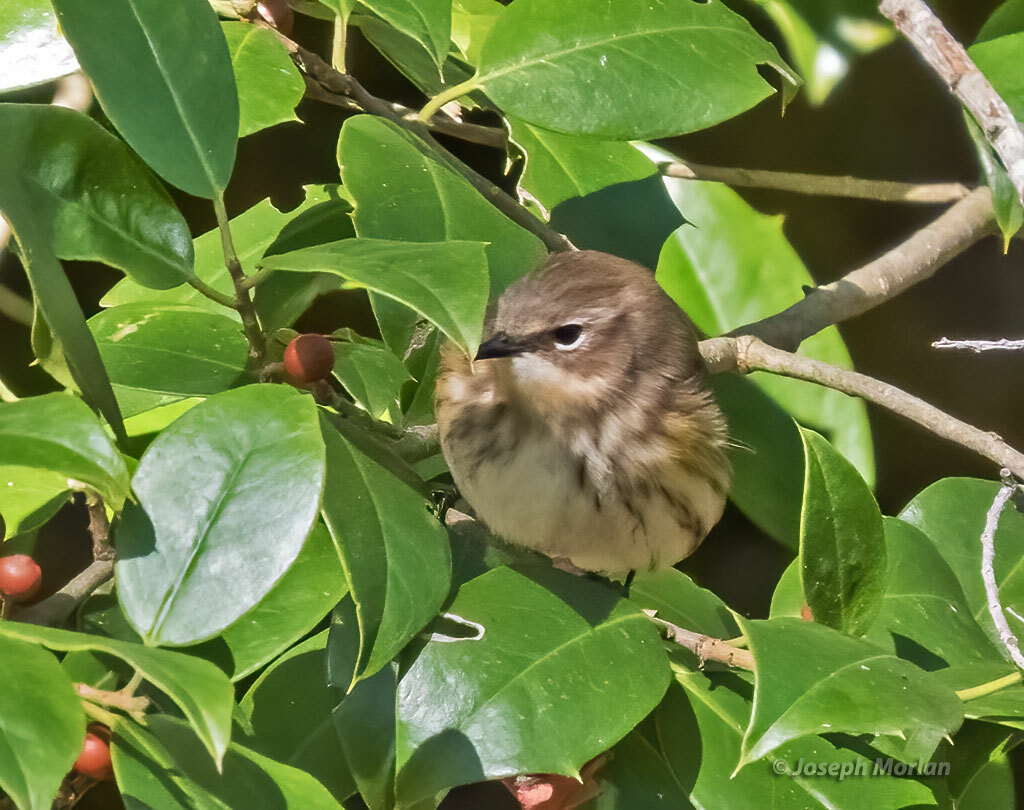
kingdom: Animalia
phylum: Chordata
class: Aves
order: Passeriformes
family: Parulidae
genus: Setophaga
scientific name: Setophaga coronata
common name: Myrtle warbler
